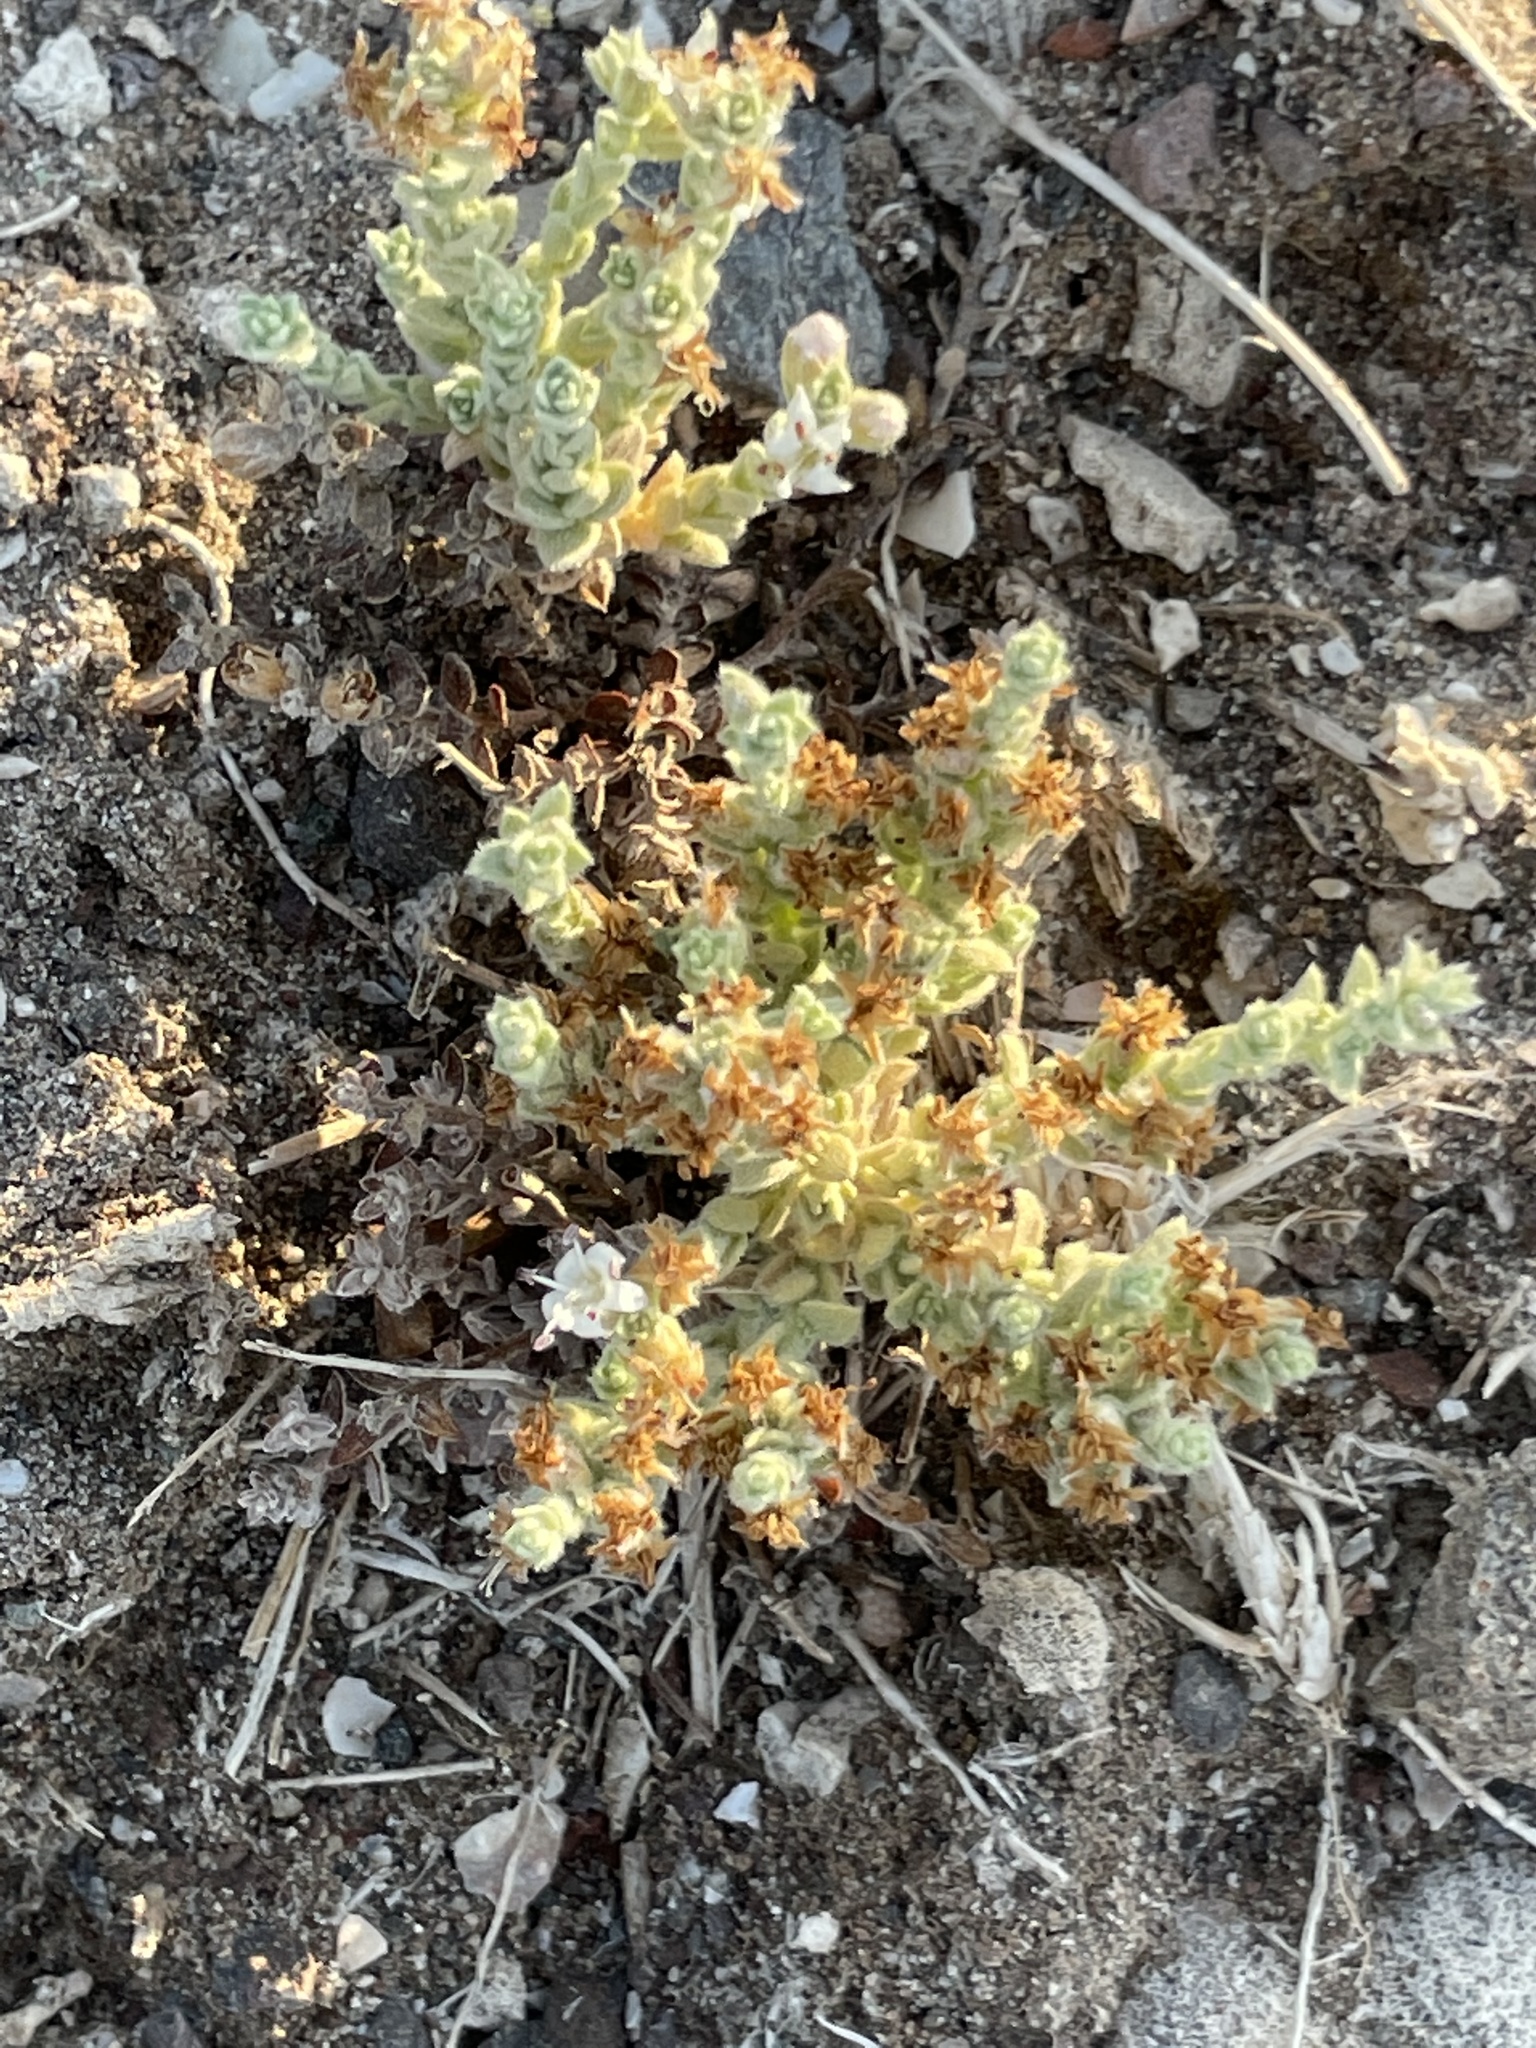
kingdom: Plantae
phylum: Tracheophyta
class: Magnoliopsida
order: Solanales
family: Convolvulaceae
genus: Cressa
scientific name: Cressa truxillensis
